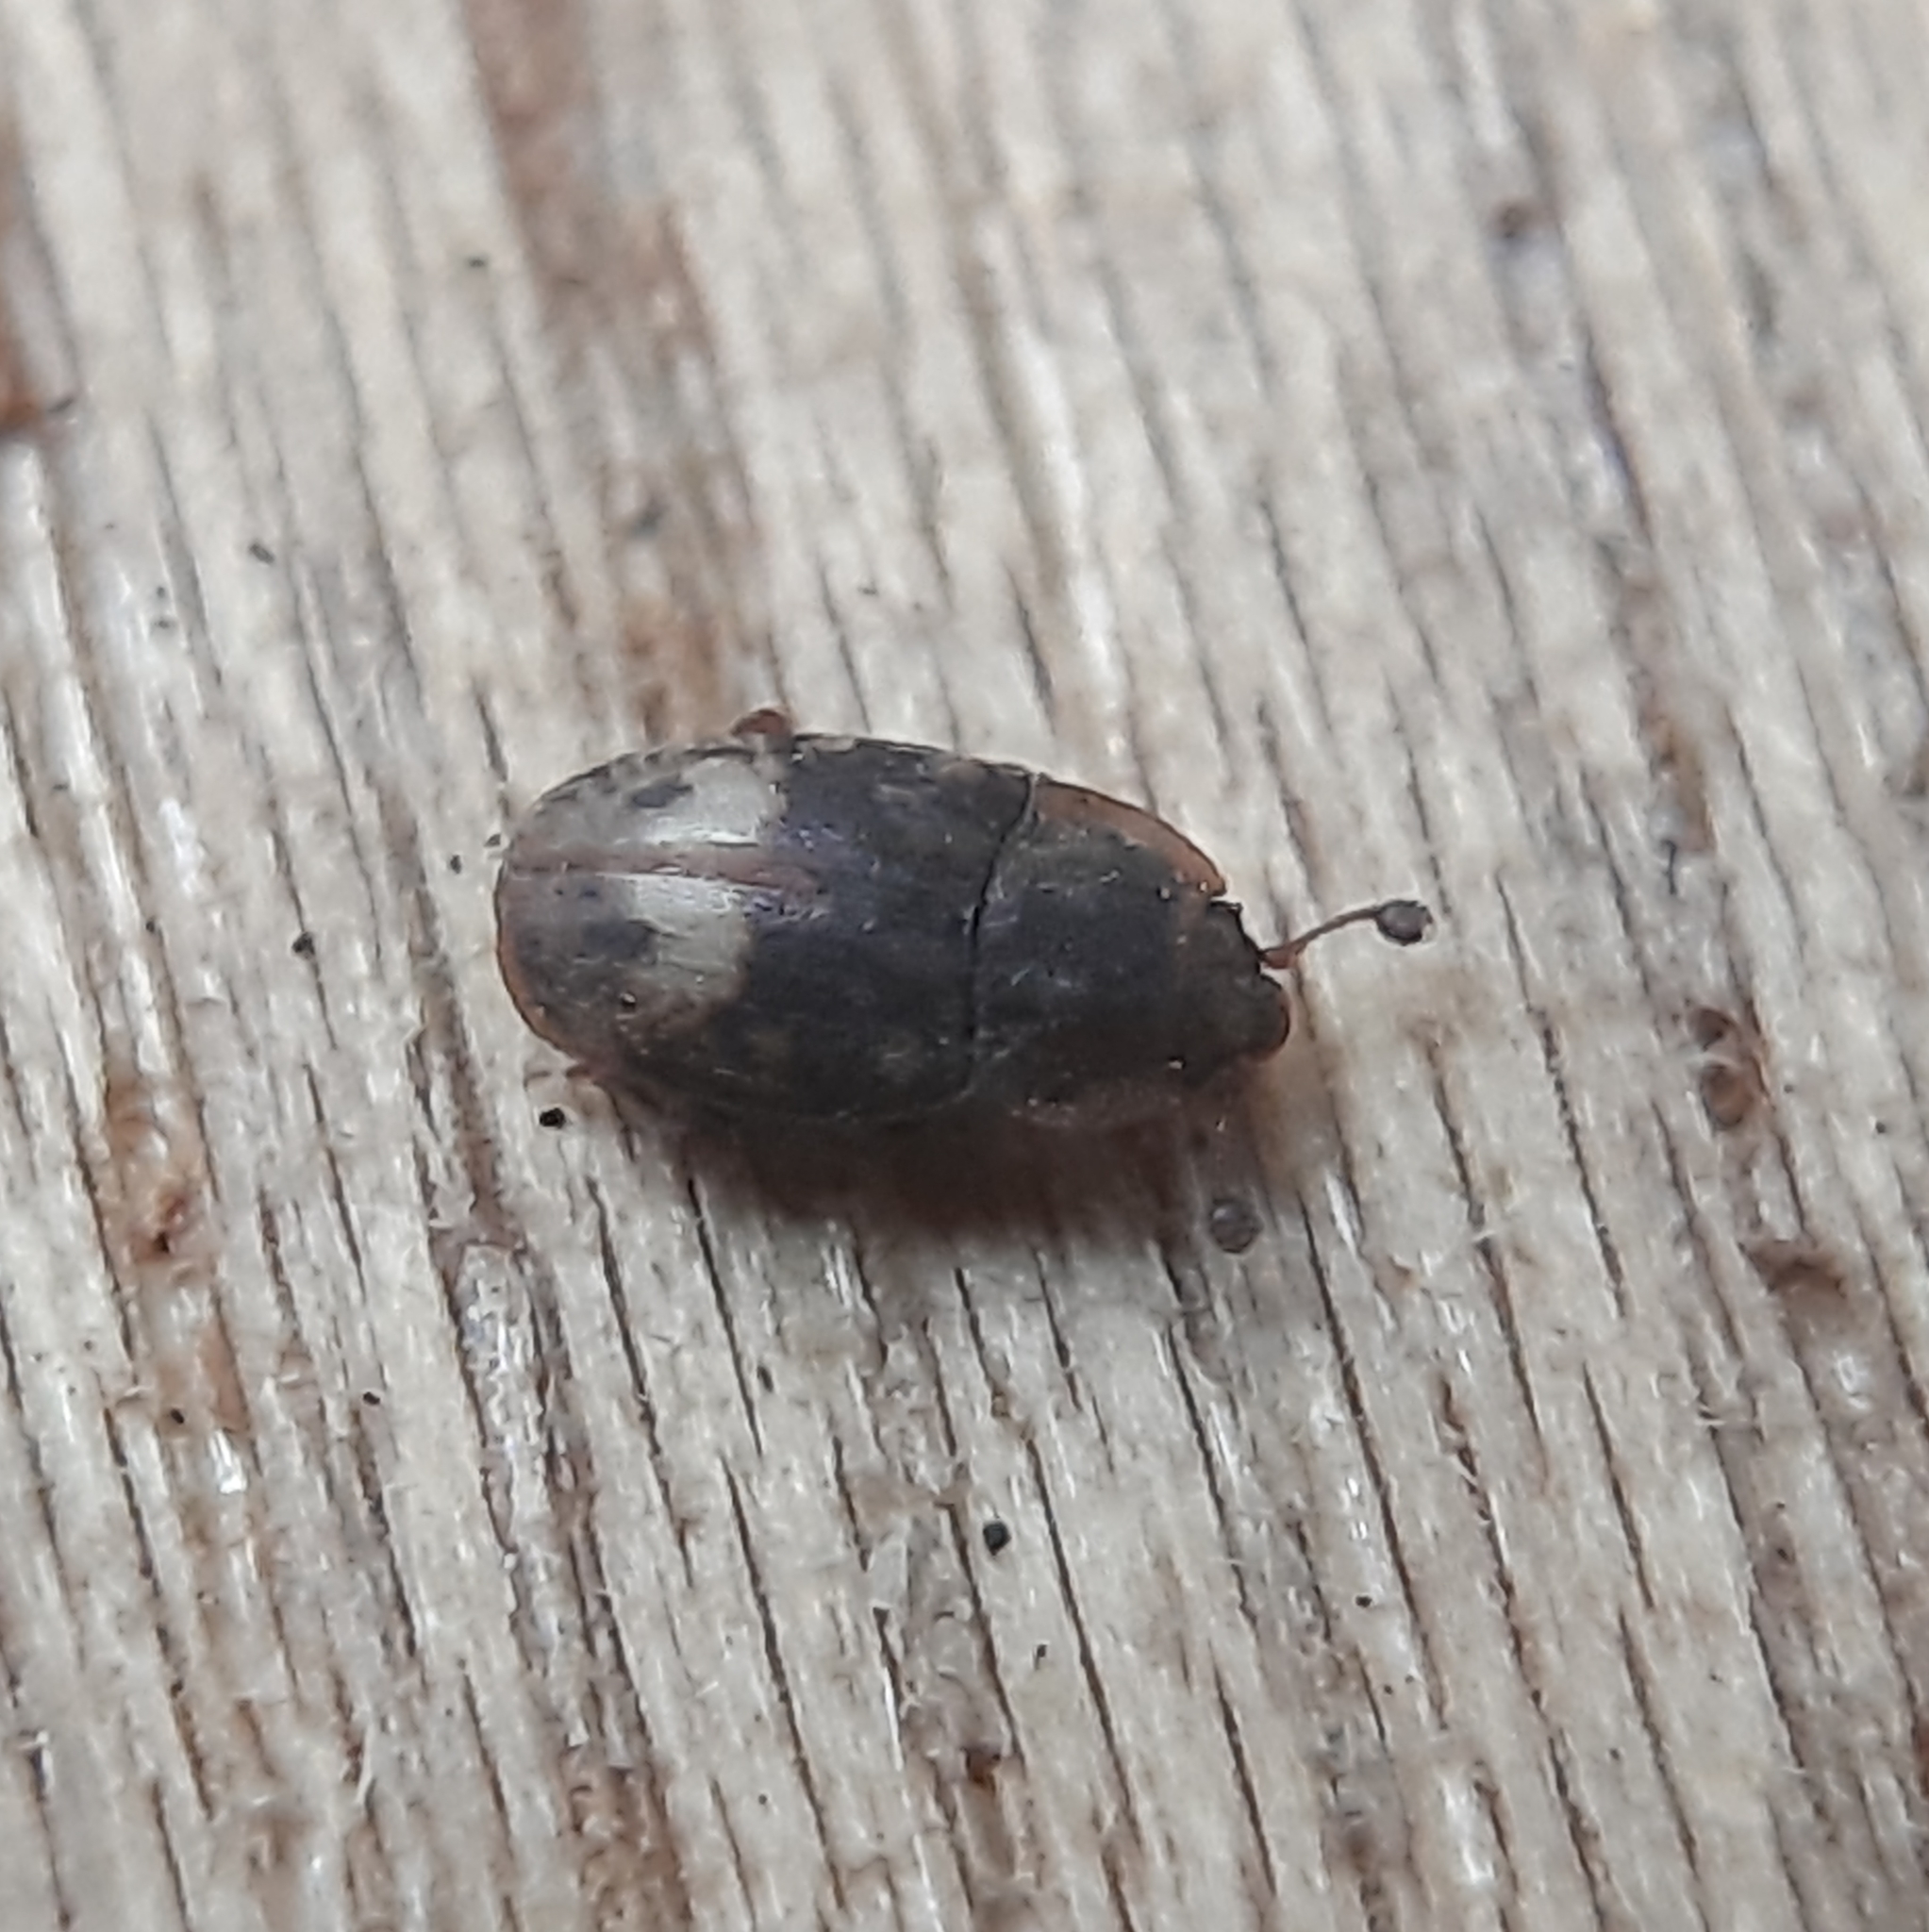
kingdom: Animalia
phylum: Arthropoda
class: Insecta
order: Coleoptera
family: Nitidulidae
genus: Omosita
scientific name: Omosita nearctica
